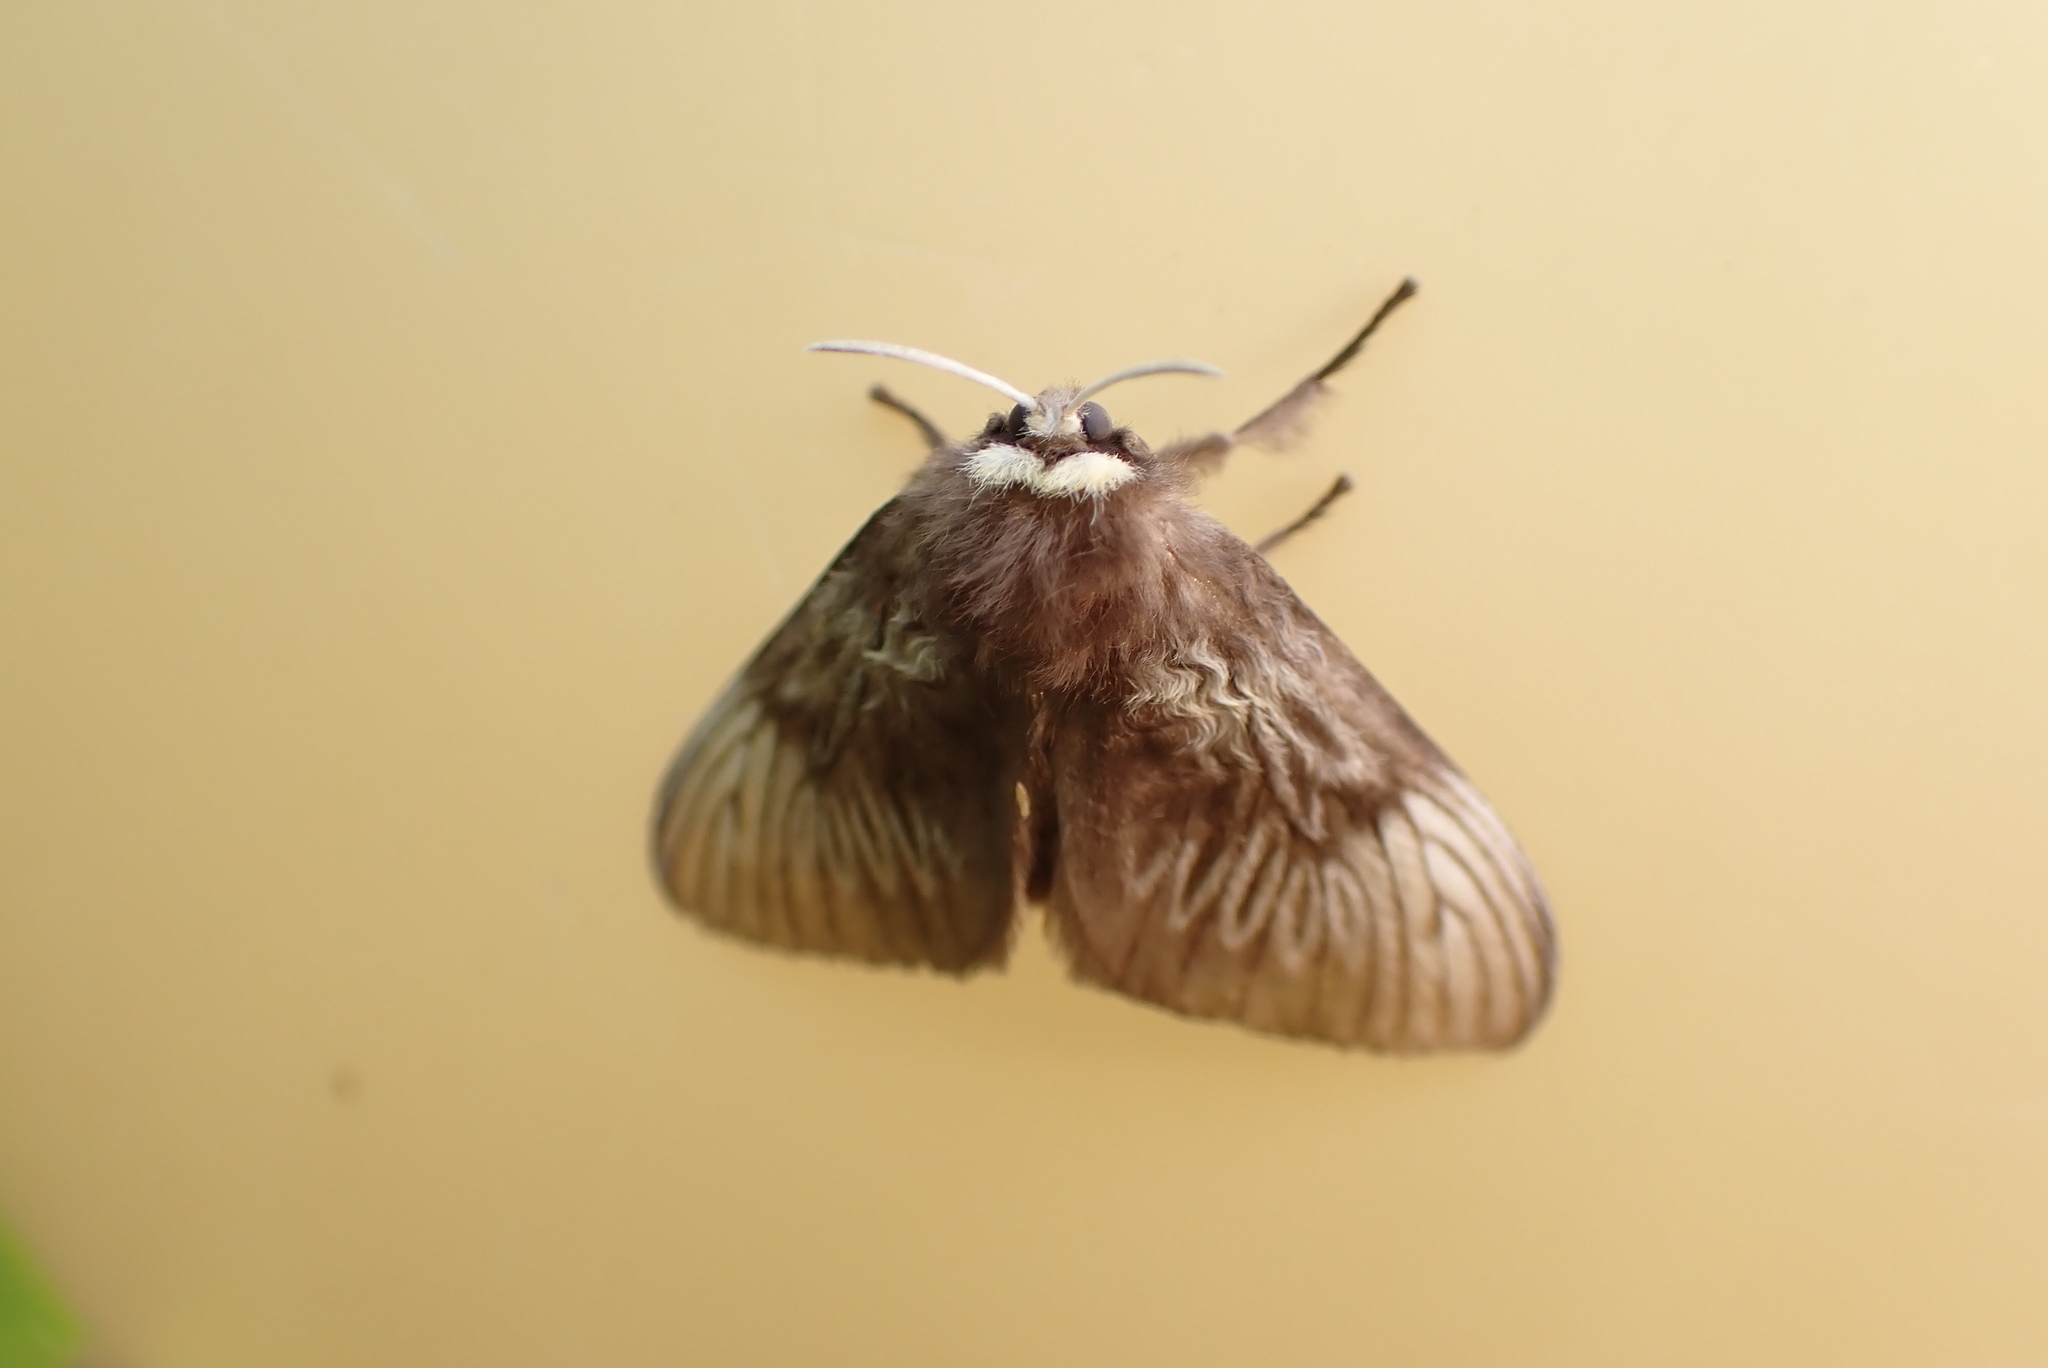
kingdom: Animalia
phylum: Arthropoda
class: Insecta
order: Lepidoptera
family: Megalopygidae
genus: Podalia
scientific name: Podalia tympania
